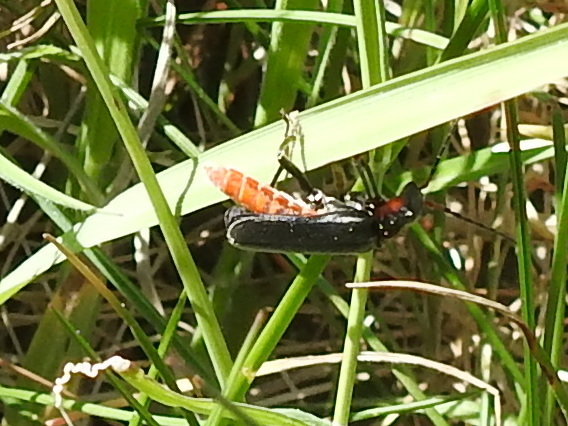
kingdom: Animalia
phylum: Arthropoda
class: Insecta
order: Coleoptera
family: Cantharidae
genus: Cantharis
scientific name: Cantharis fusca
